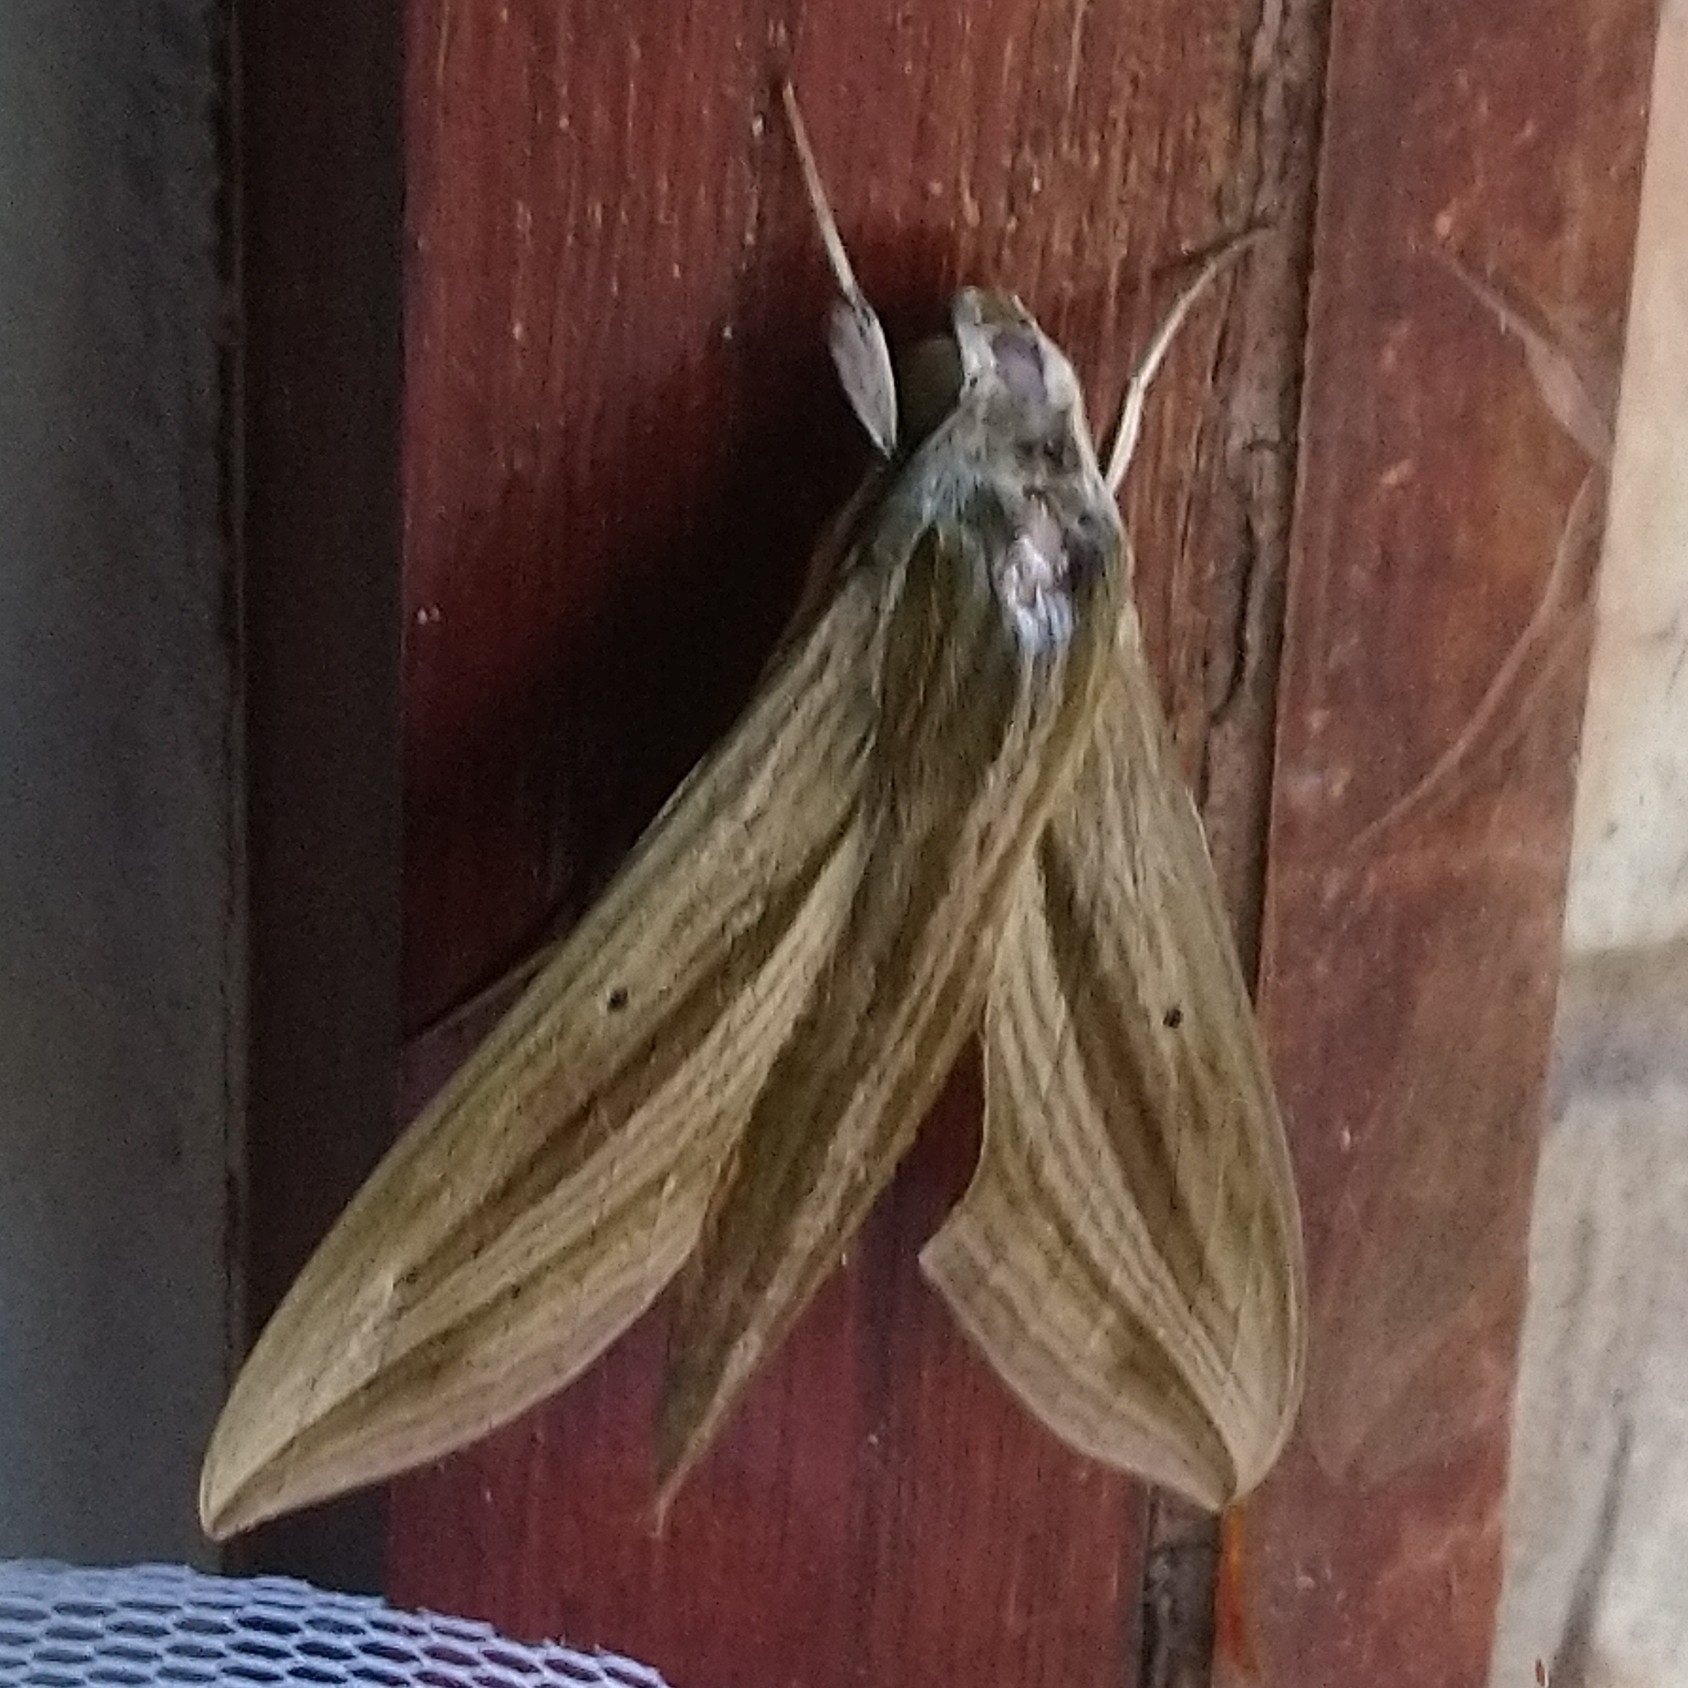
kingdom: Animalia
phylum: Arthropoda
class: Insecta
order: Lepidoptera
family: Sphingidae
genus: Hippotion
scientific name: Hippotion eson
